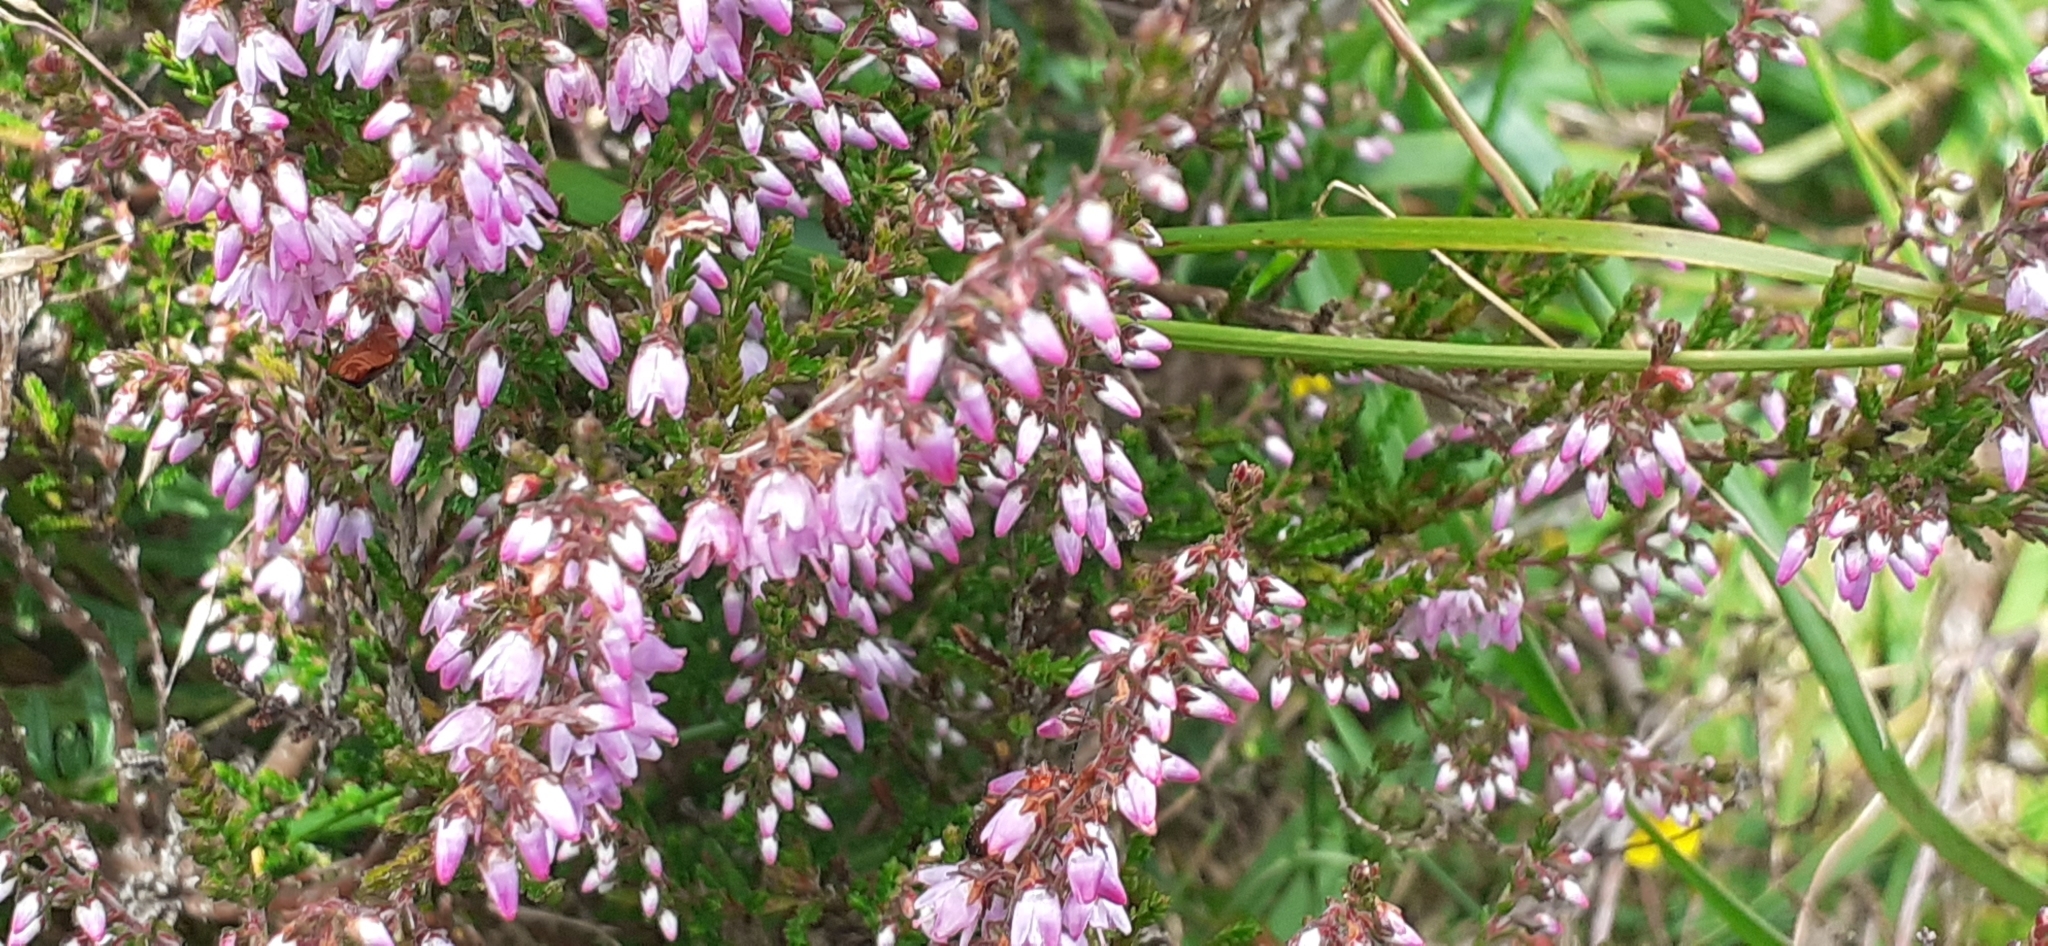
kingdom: Plantae
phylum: Tracheophyta
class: Magnoliopsida
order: Ericales
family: Ericaceae
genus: Calluna
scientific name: Calluna vulgaris
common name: Heather
